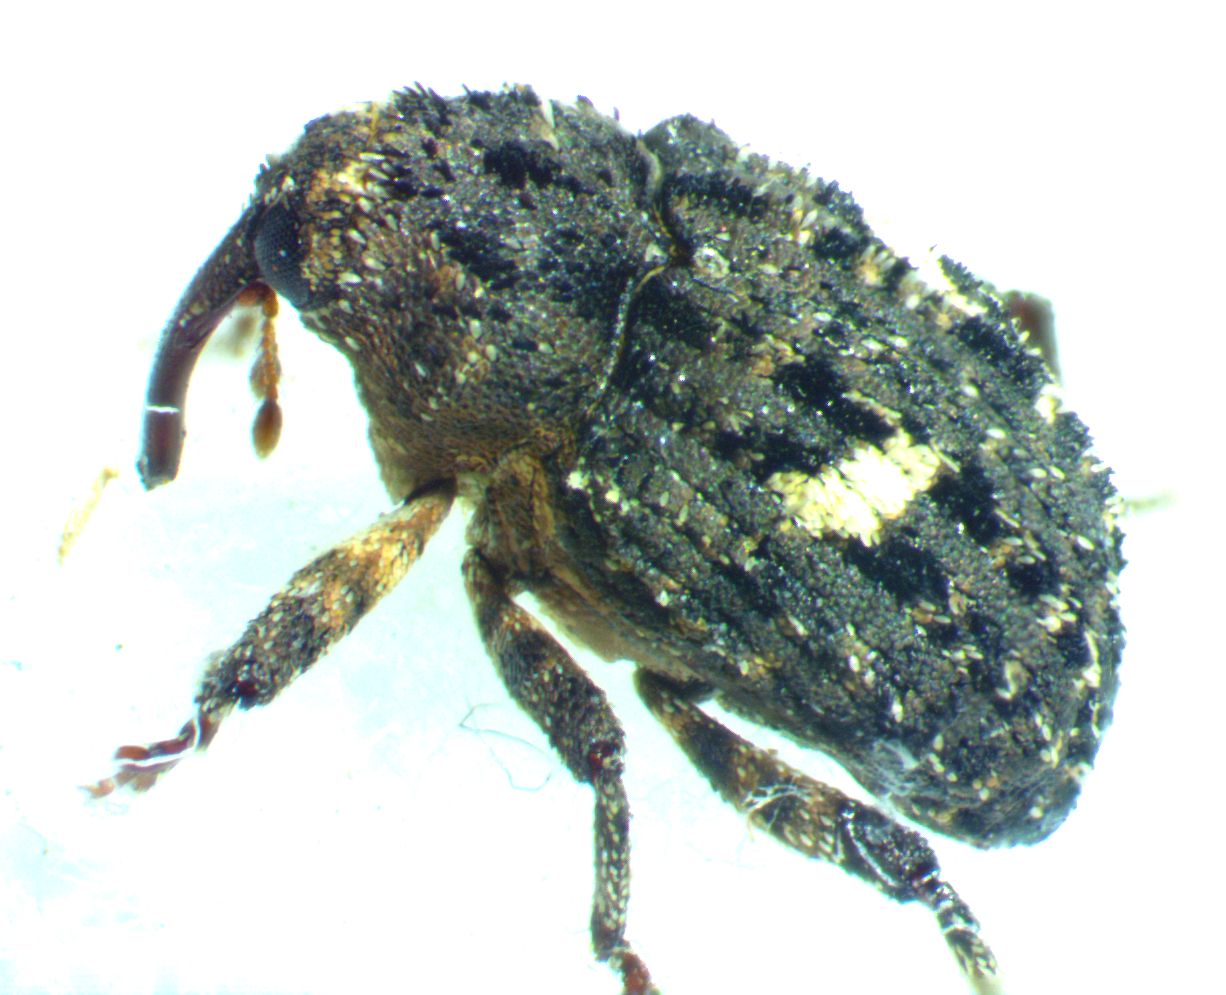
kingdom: Animalia
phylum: Arthropoda
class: Insecta
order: Coleoptera
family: Curculionidae
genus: Eubulus
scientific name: Eubulus bisignatus
